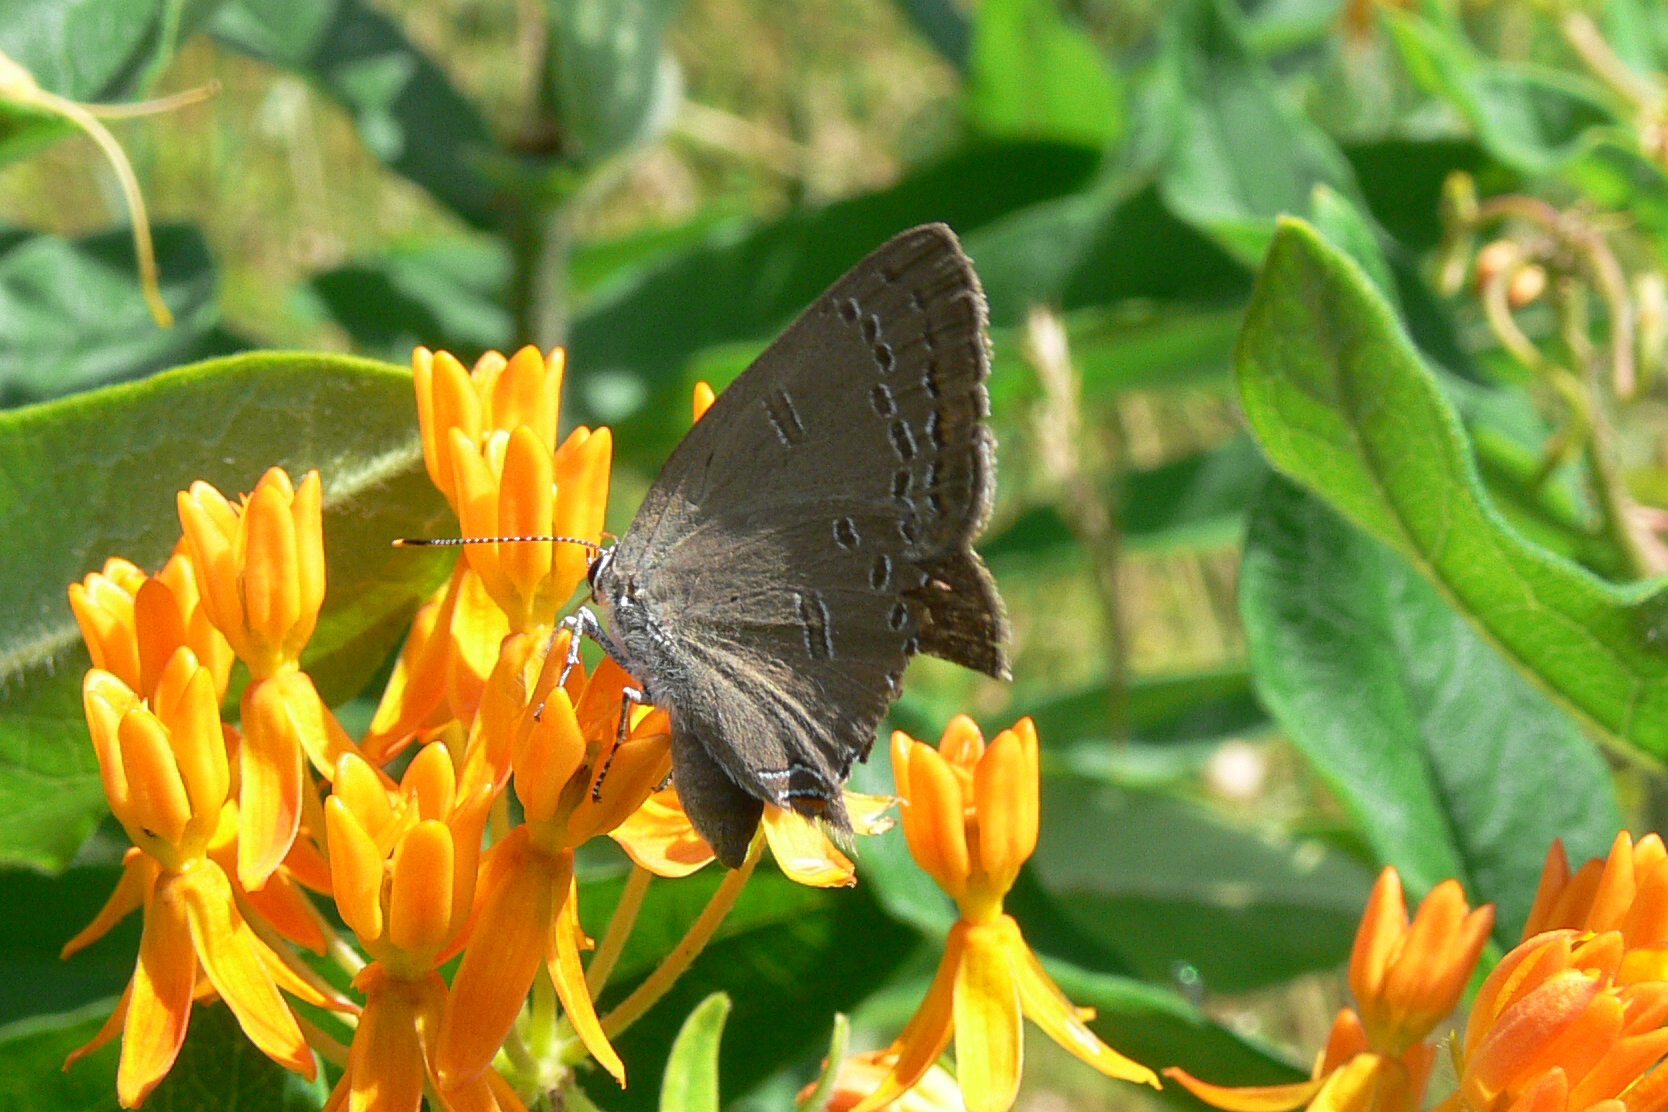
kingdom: Animalia
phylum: Arthropoda
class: Insecta
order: Lepidoptera
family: Lycaenidae
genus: Satyrium
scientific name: Satyrium edwardsii
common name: Edwards' hairstreak
